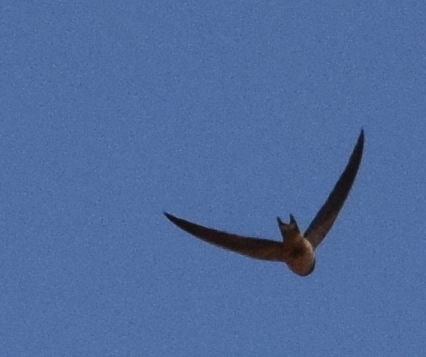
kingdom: Animalia
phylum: Chordata
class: Aves
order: Passeriformes
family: Hirundinidae
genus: Hirundo
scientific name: Hirundo rustica
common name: Barn swallow
